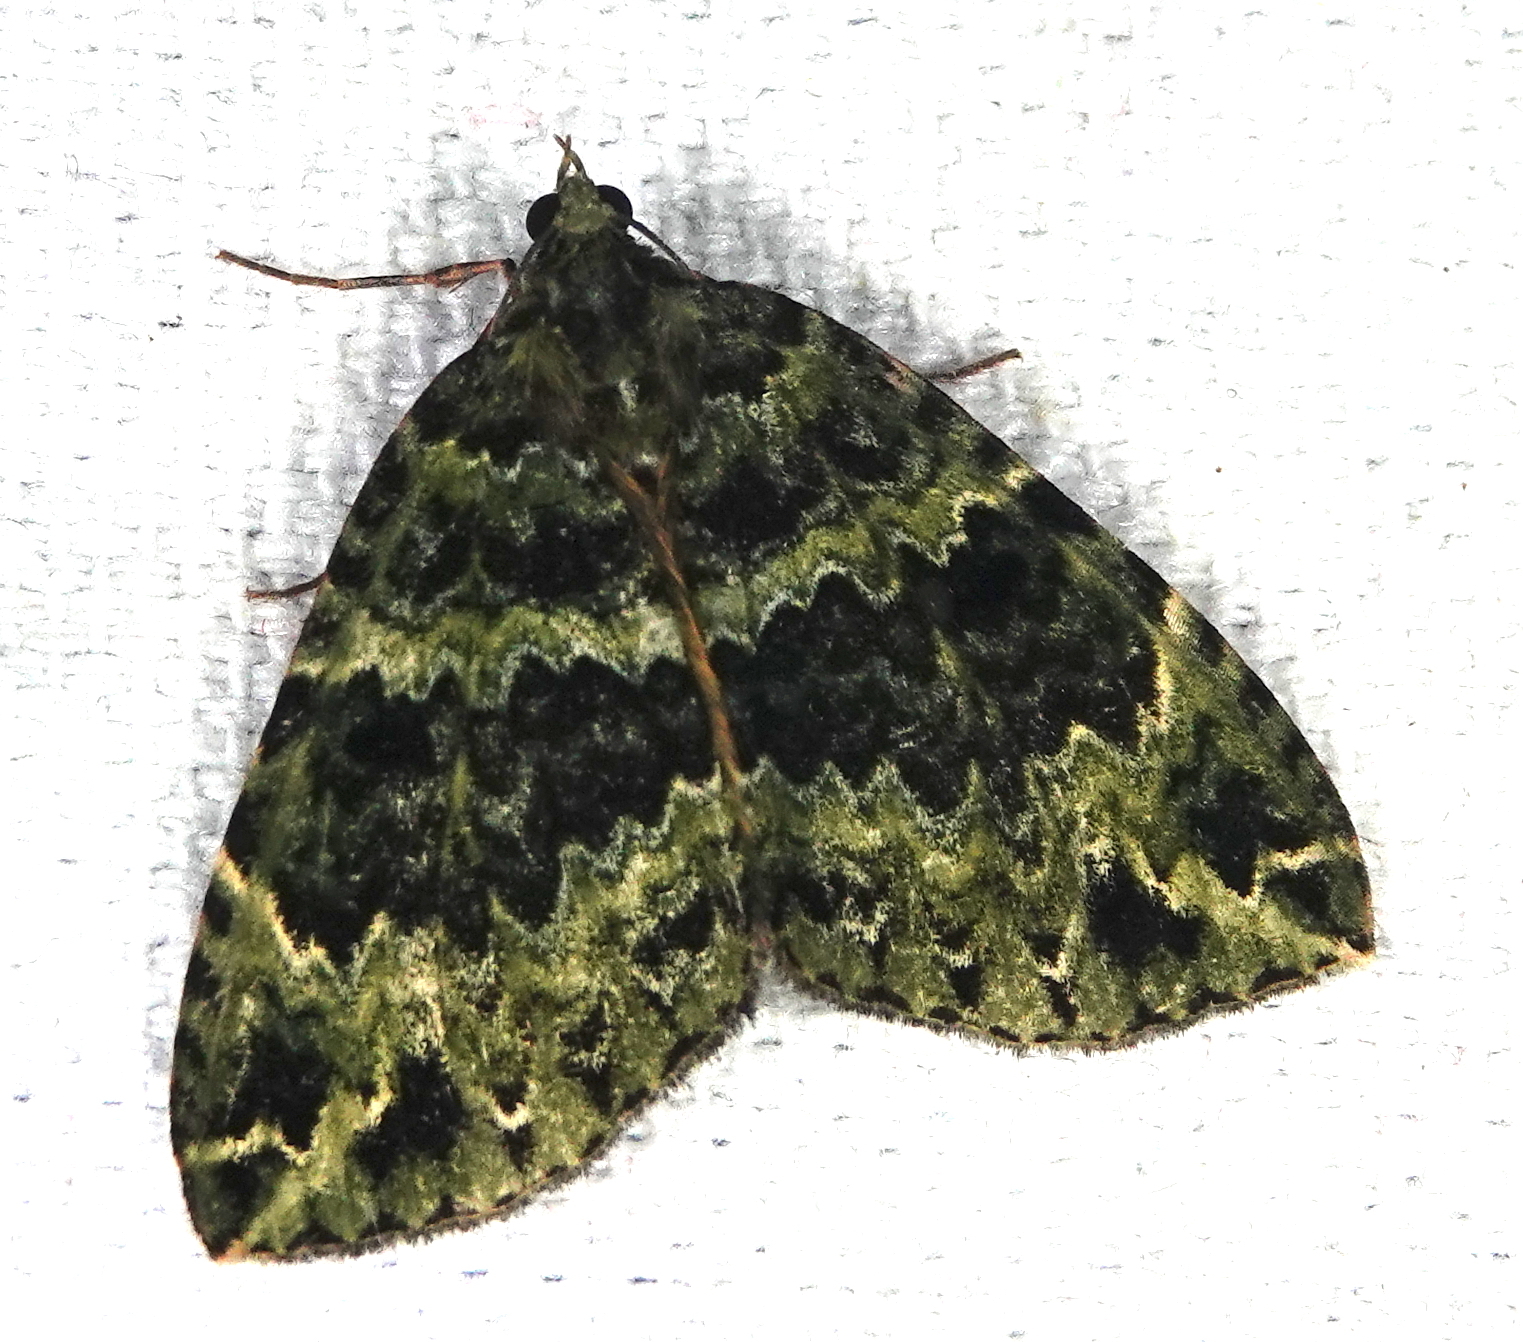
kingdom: Animalia
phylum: Arthropoda
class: Insecta
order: Lepidoptera
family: Geometridae
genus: Spargania
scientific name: Spargania flavolimbarioides
